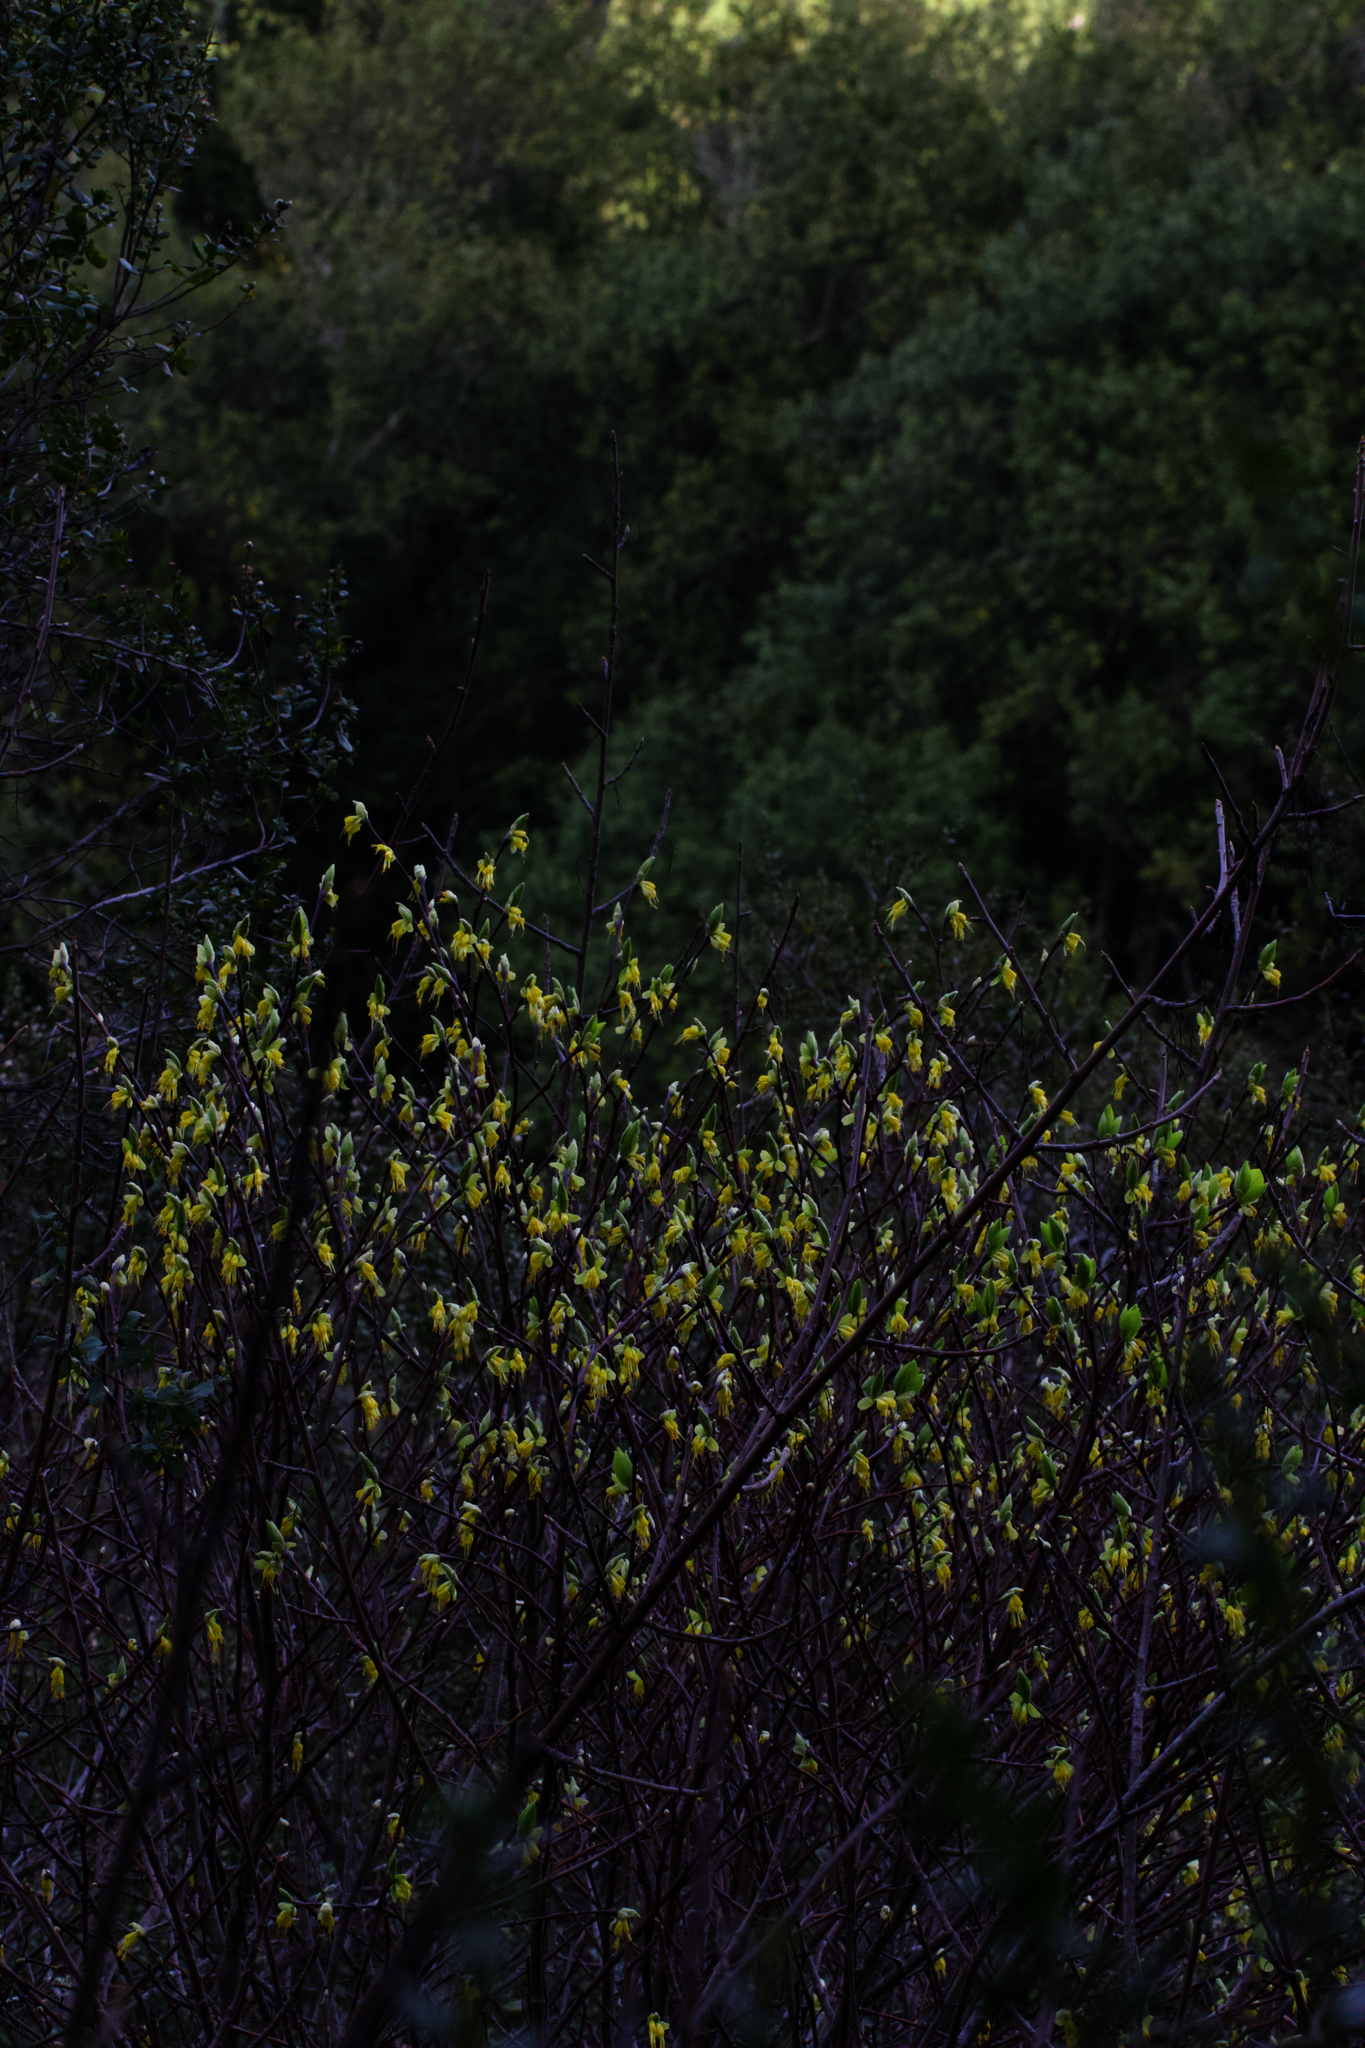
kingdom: Plantae
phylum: Tracheophyta
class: Magnoliopsida
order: Malvales
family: Thymelaeaceae
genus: Dirca
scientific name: Dirca occidentalis
